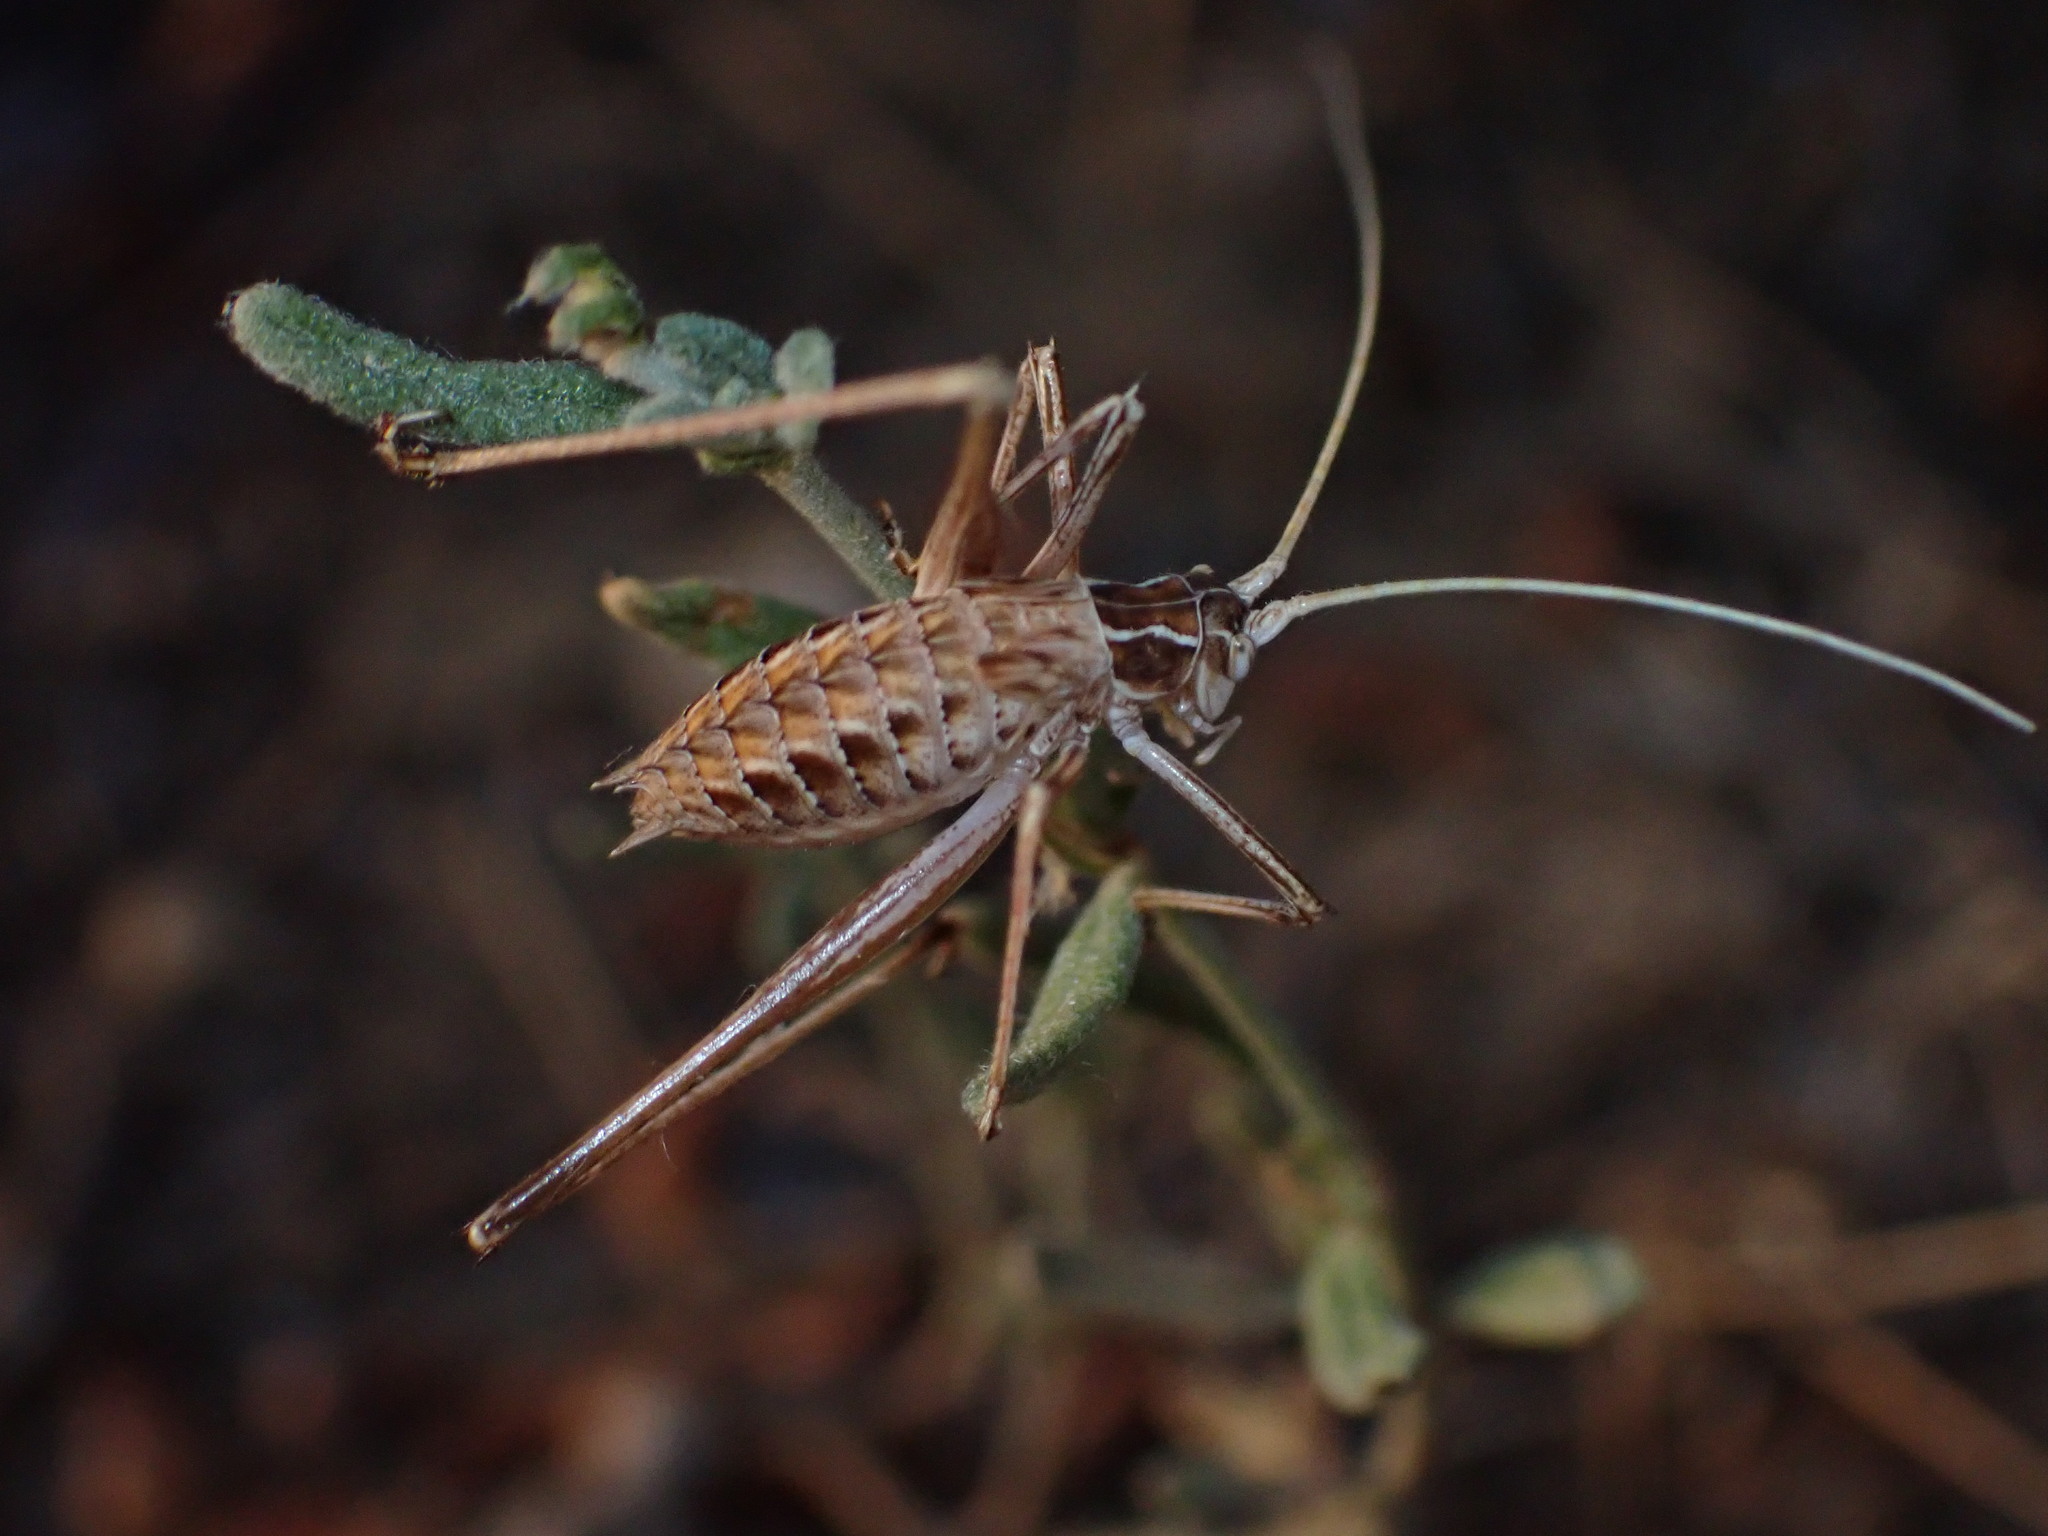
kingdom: Animalia
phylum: Arthropoda
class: Insecta
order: Orthoptera
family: Tettigoniidae
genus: Tylopsis
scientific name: Tylopsis lilifolia
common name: Lily bush-cricket
